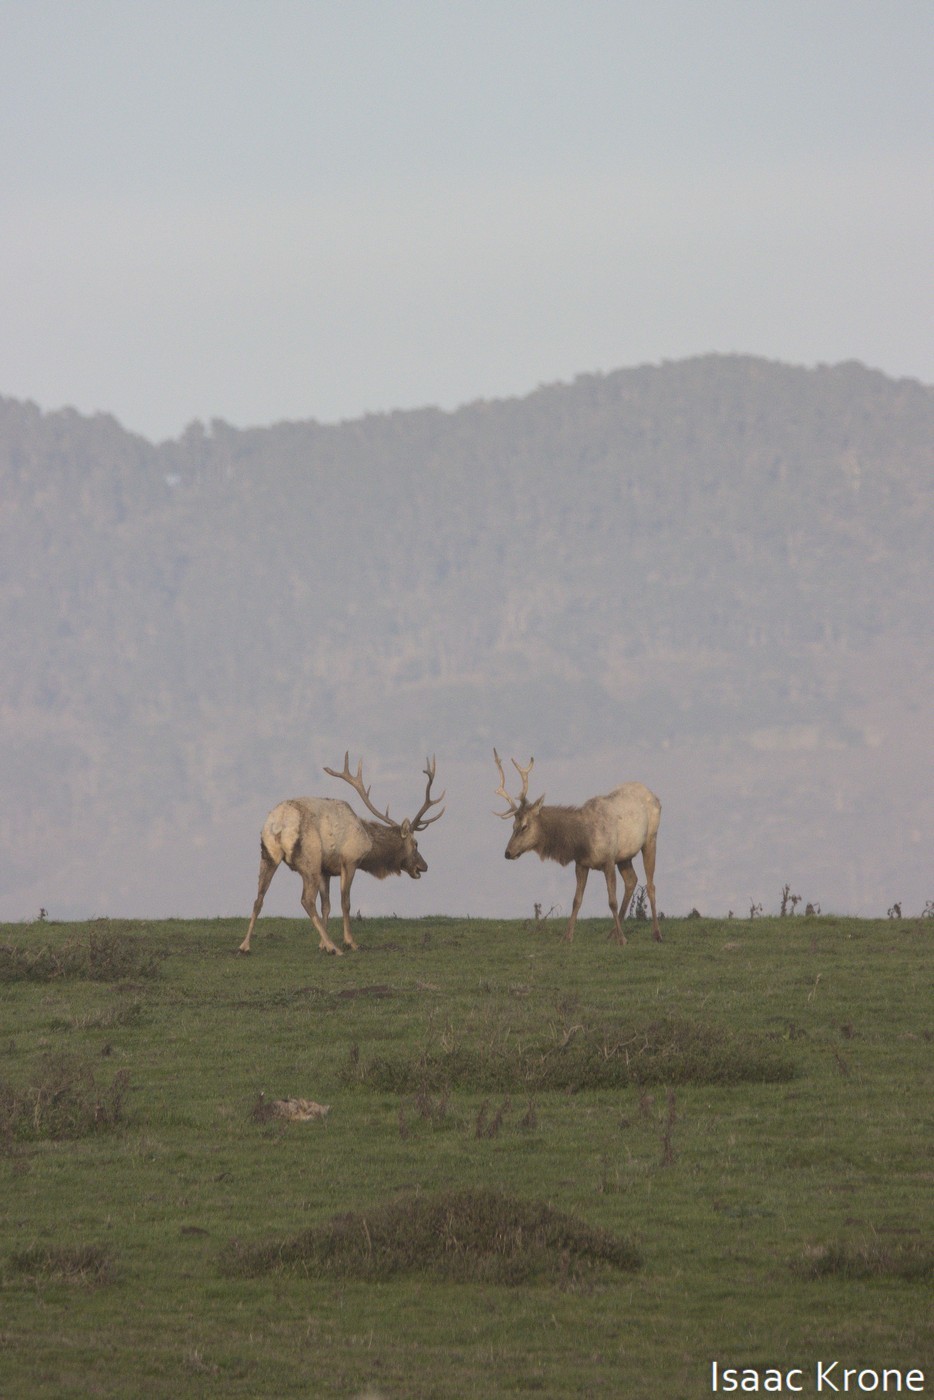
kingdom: Animalia
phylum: Chordata
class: Mammalia
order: Artiodactyla
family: Cervidae
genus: Cervus
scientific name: Cervus elaphus
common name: Red deer
